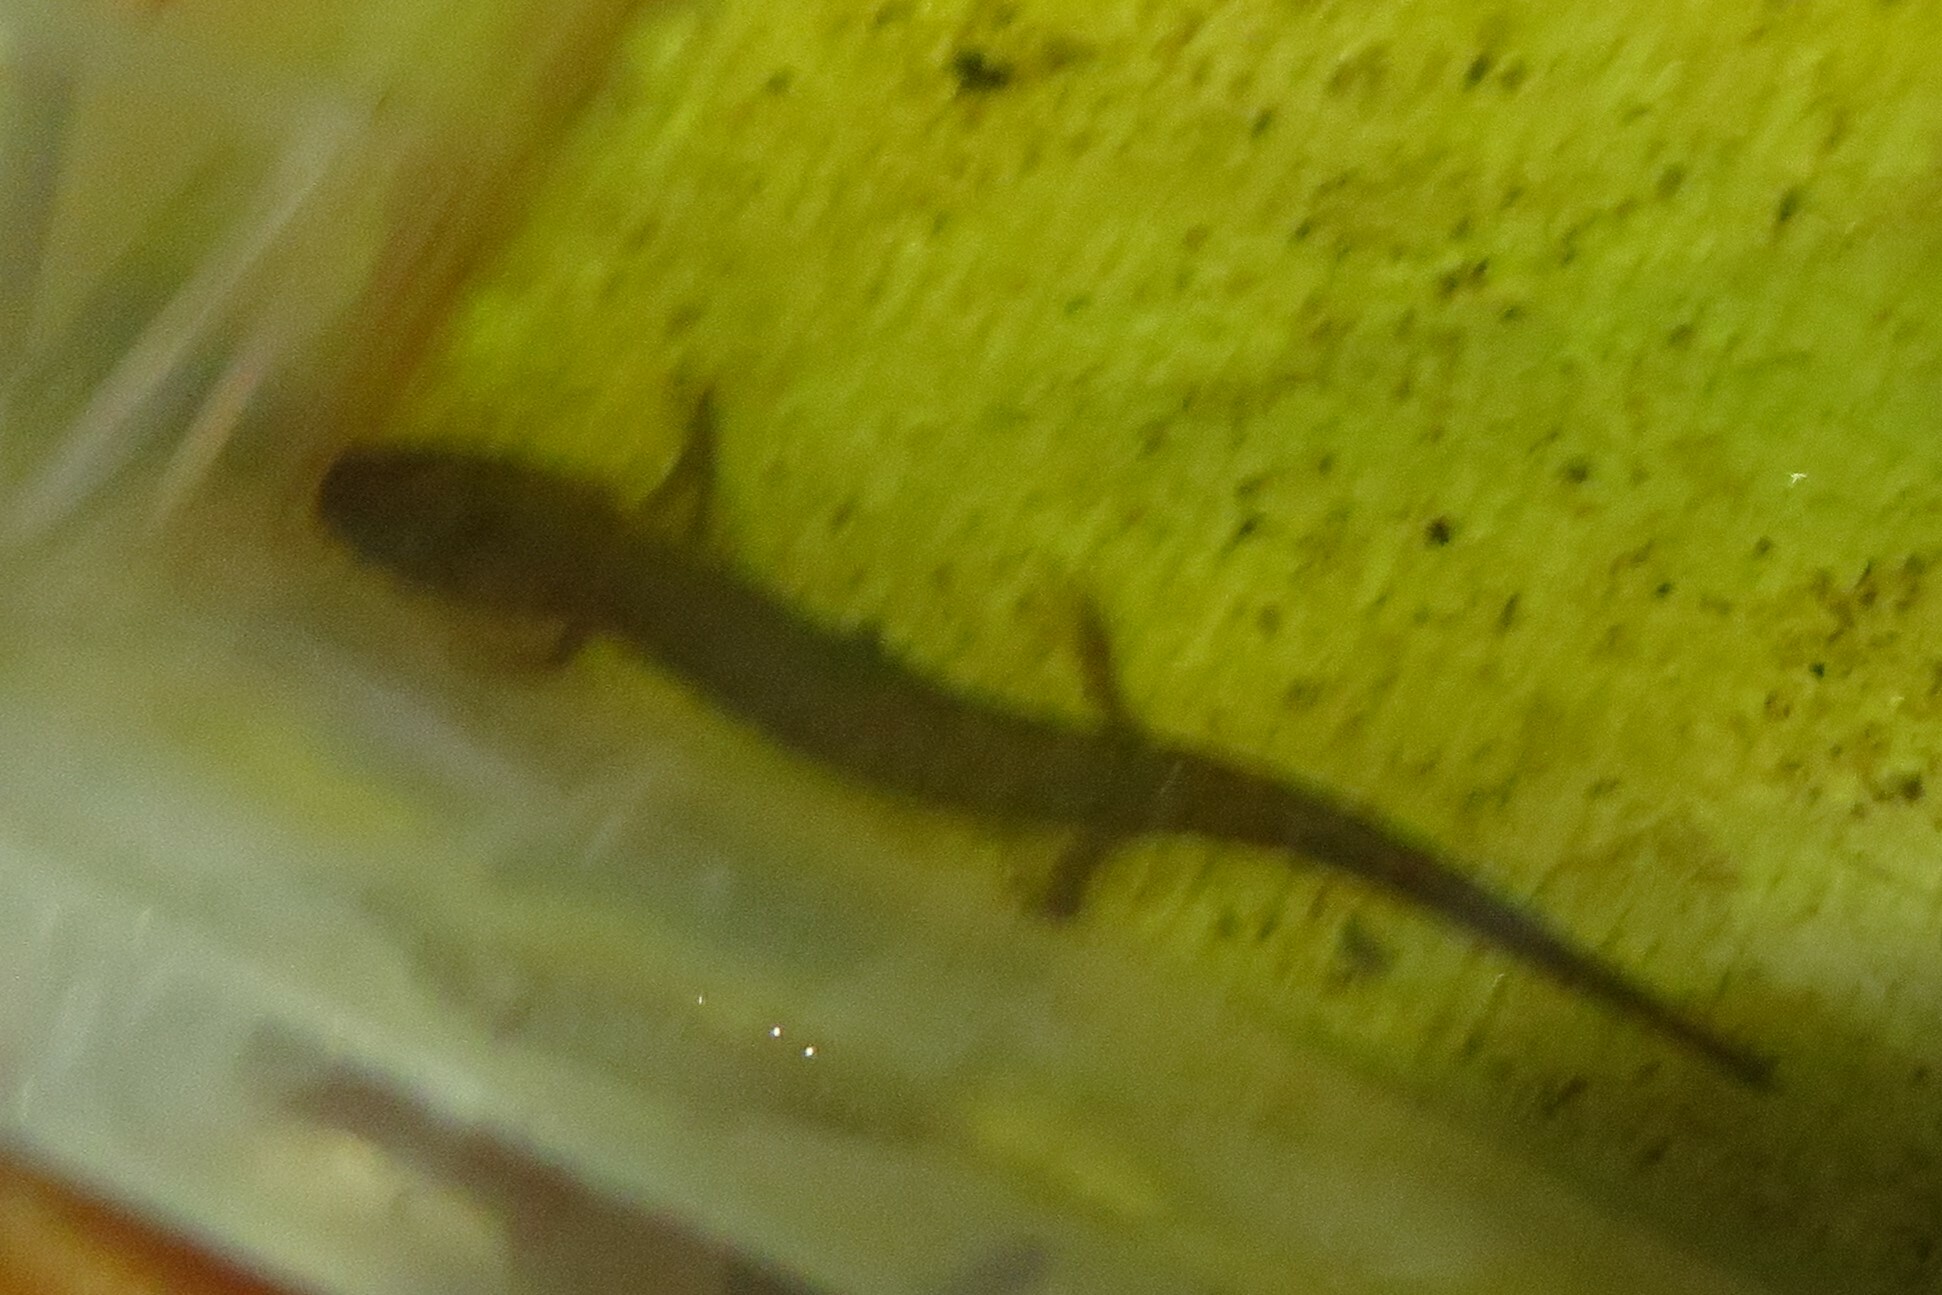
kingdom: Animalia
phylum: Chordata
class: Amphibia
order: Caudata
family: Plethodontidae
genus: Eurycea
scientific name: Eurycea bislineata
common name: Northern two-lined salamander
